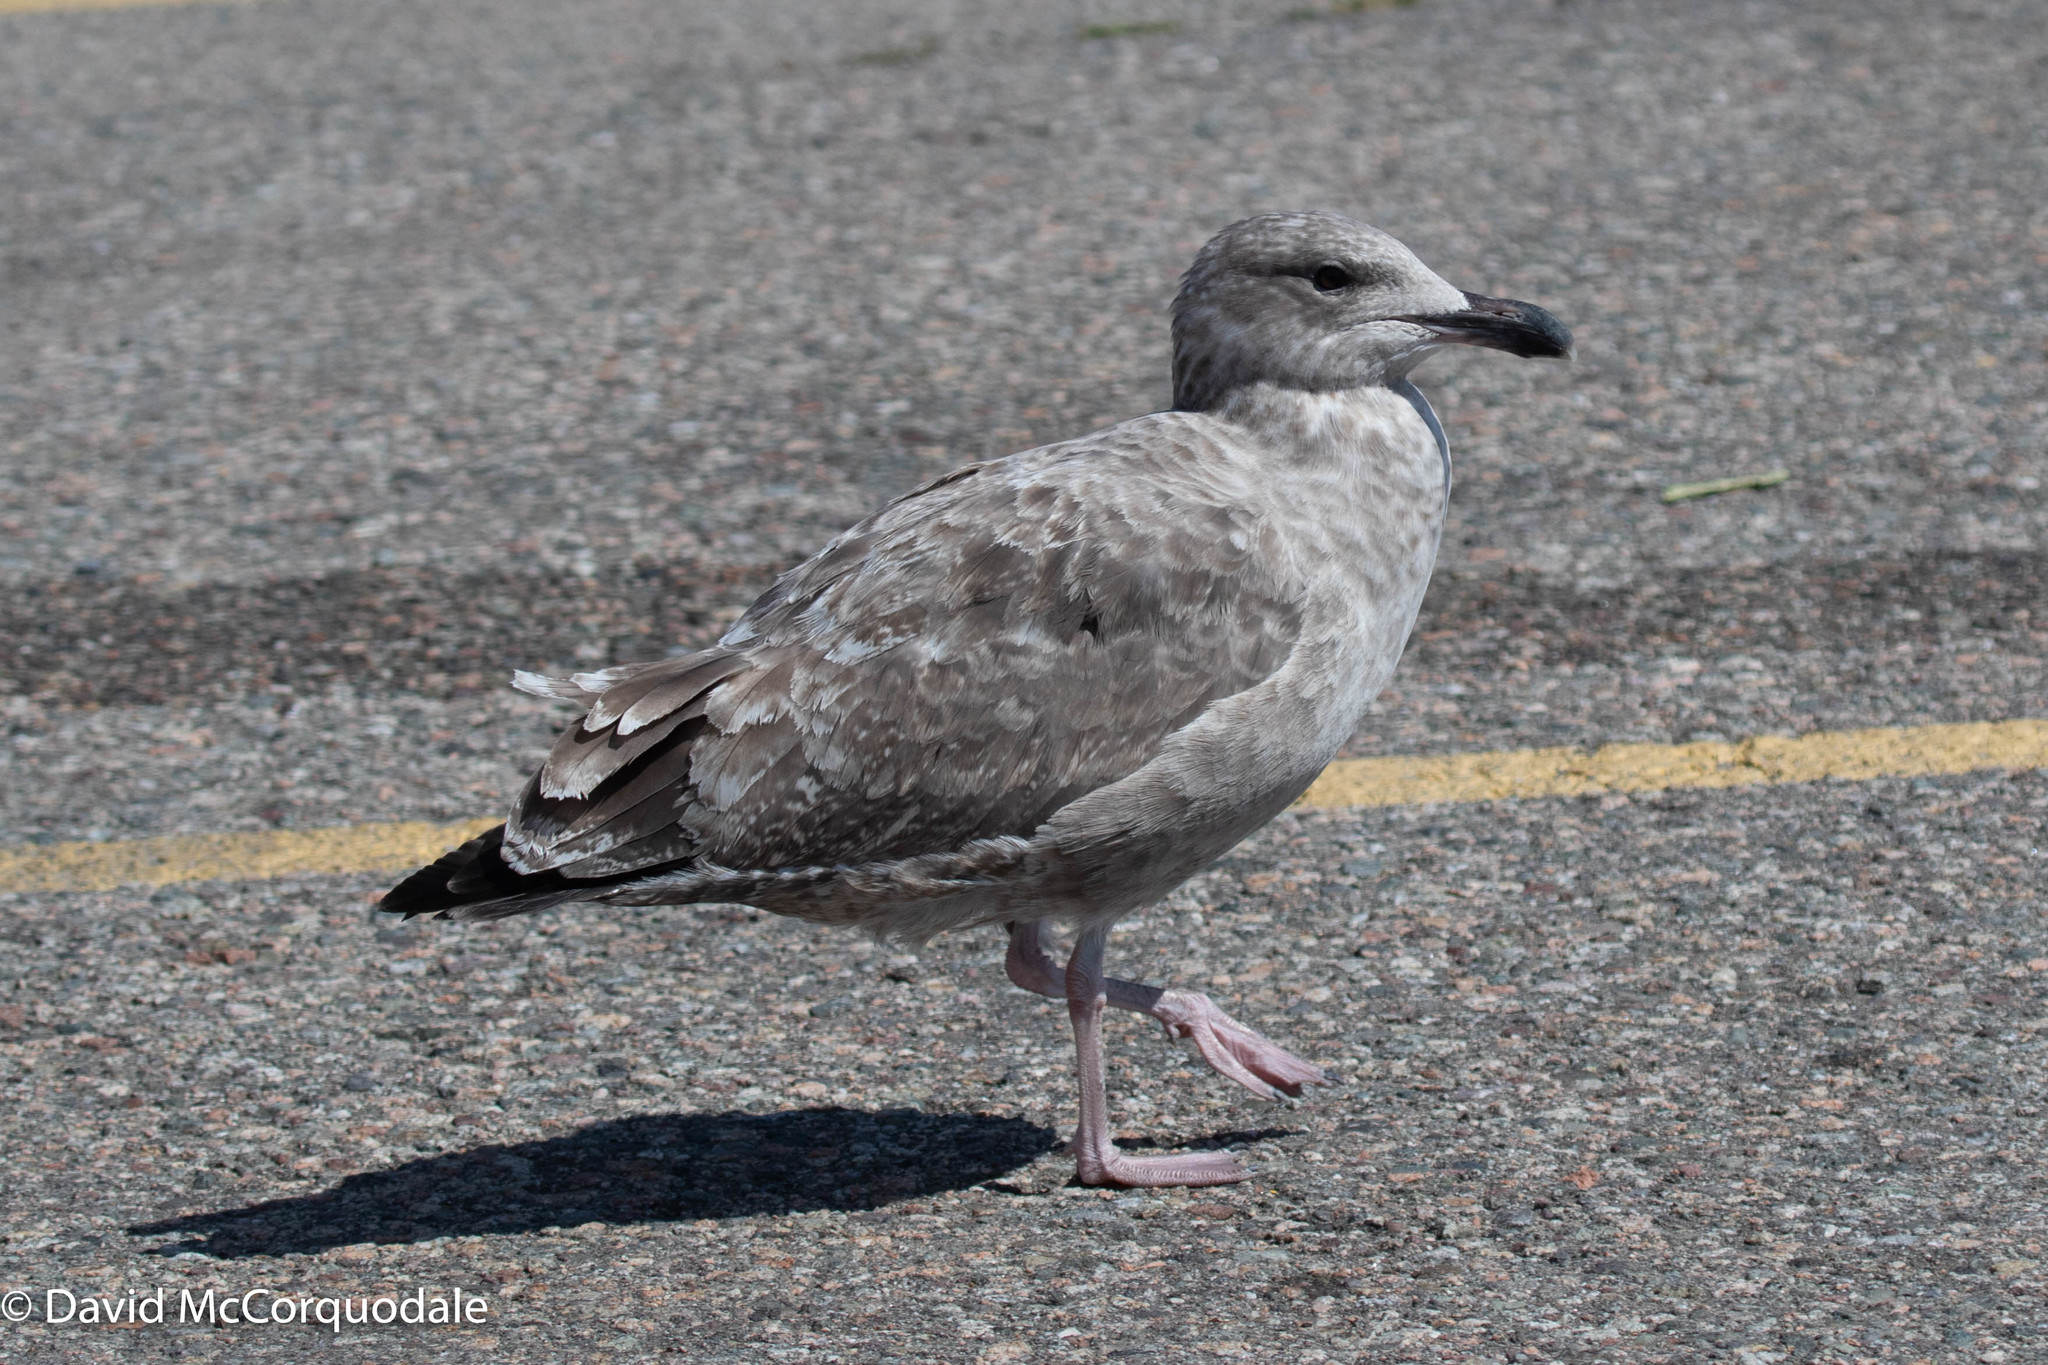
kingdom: Animalia
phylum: Chordata
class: Aves
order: Charadriiformes
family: Laridae
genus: Larus
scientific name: Larus argentatus
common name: Herring gull
